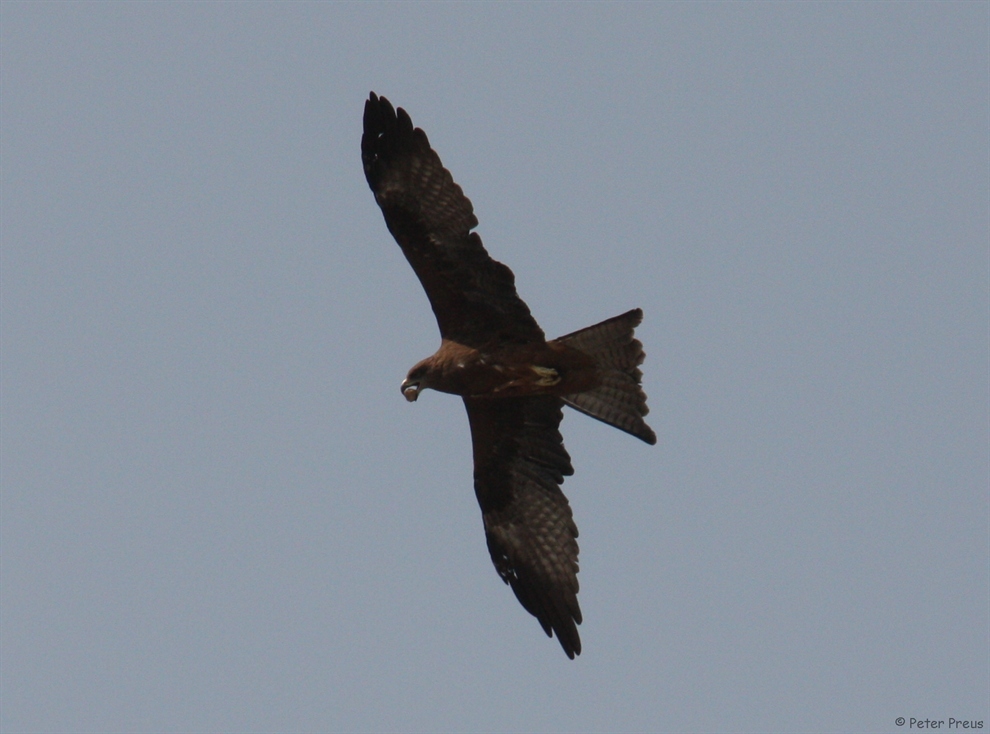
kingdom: Animalia
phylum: Chordata
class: Aves
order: Accipitriformes
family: Accipitridae
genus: Milvus
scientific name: Milvus migrans
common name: Black kite
